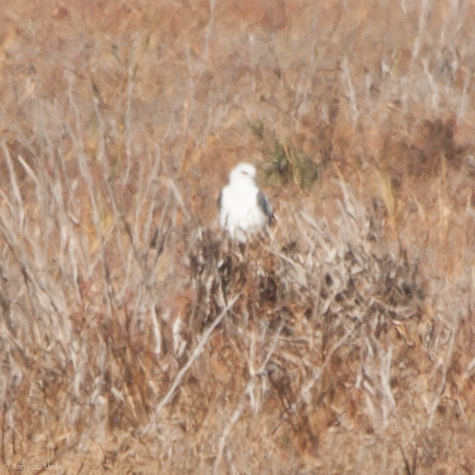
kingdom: Animalia
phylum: Chordata
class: Aves
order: Accipitriformes
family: Accipitridae
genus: Elanus
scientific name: Elanus leucurus
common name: White-tailed kite
